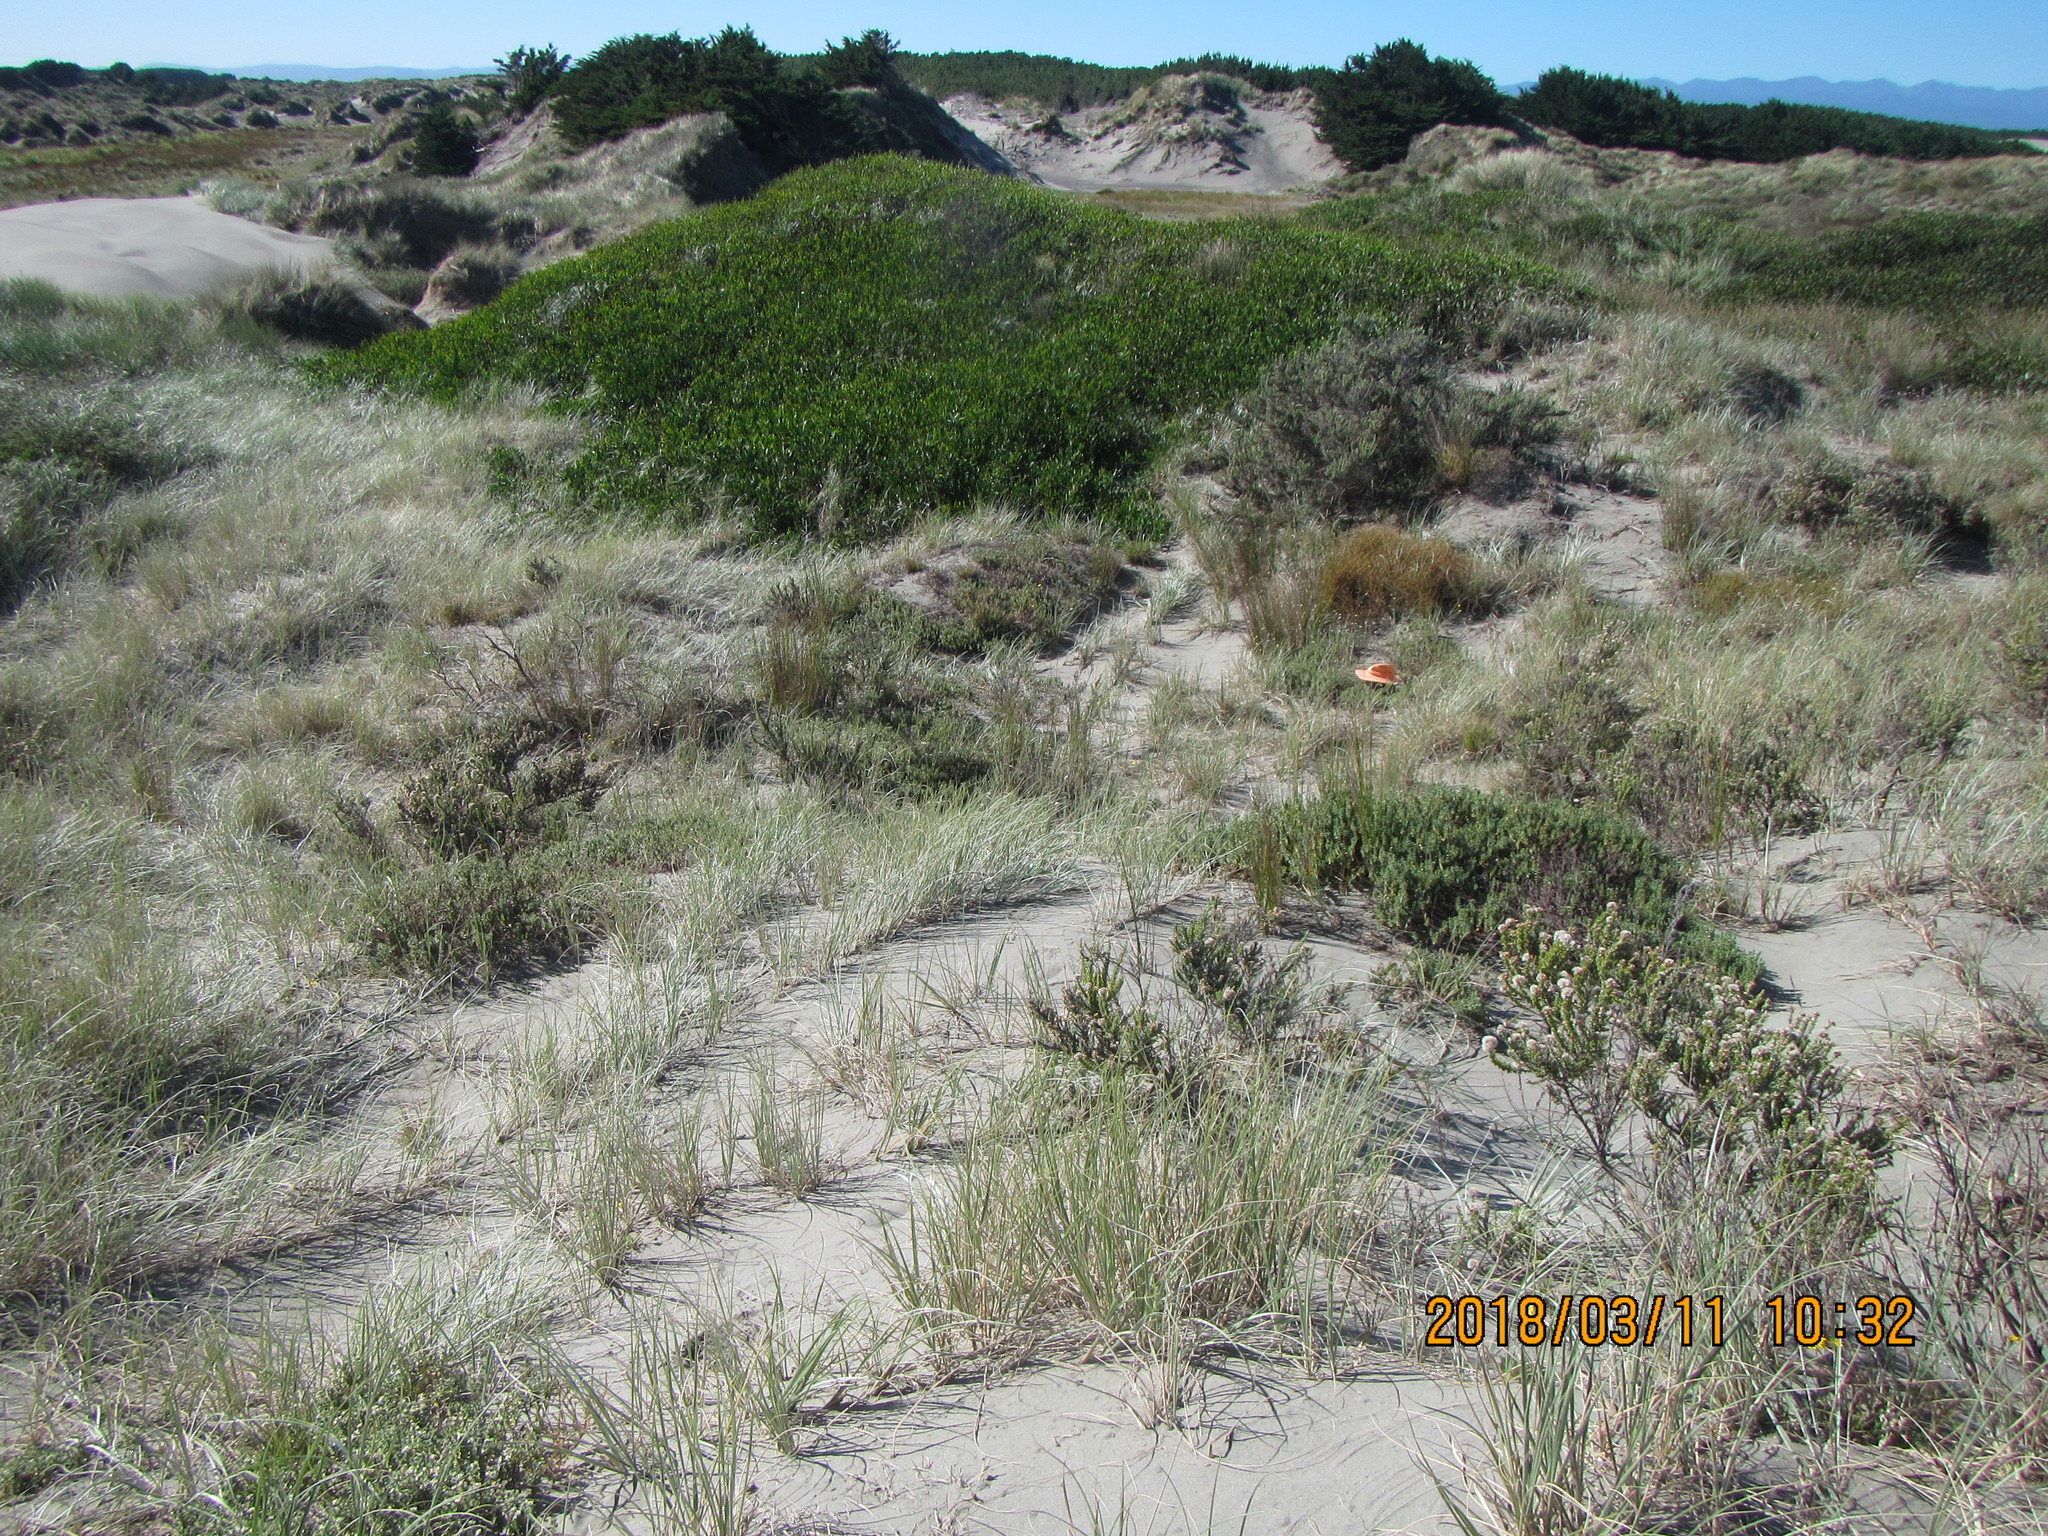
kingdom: Animalia
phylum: Arthropoda
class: Arachnida
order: Araneae
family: Theridiidae
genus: Latrodectus
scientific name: Latrodectus katipo
